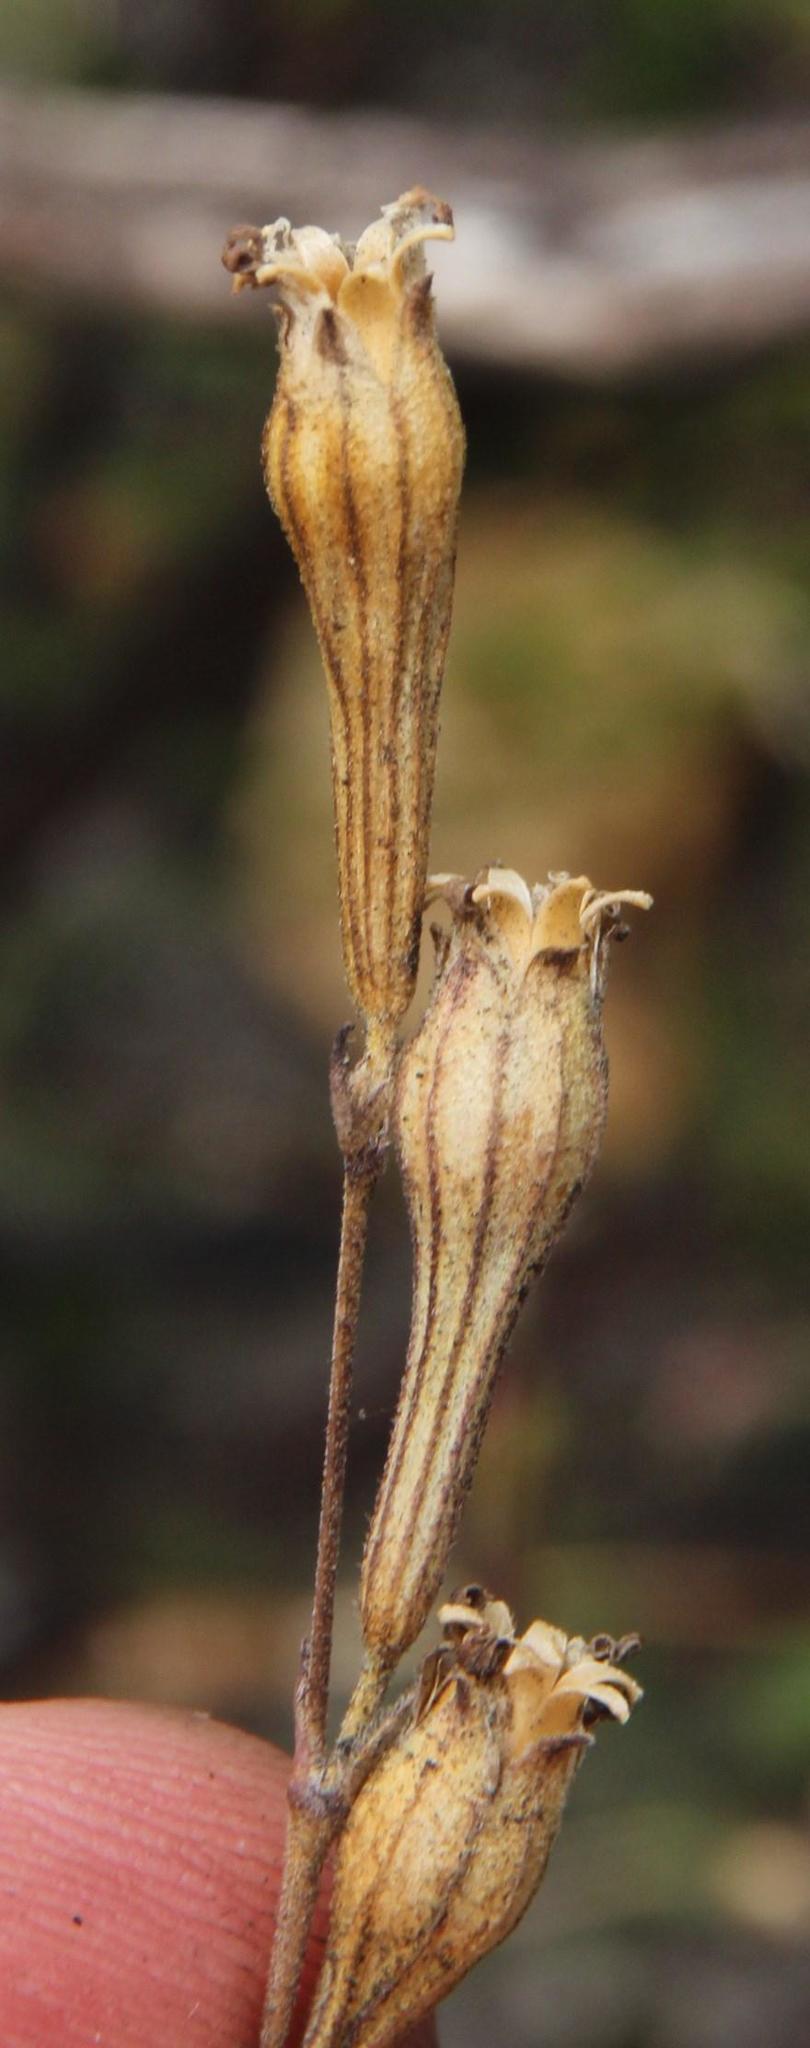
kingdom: Plantae
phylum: Tracheophyta
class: Magnoliopsida
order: Caryophyllales
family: Caryophyllaceae
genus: Silene
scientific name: Silene burchellii
